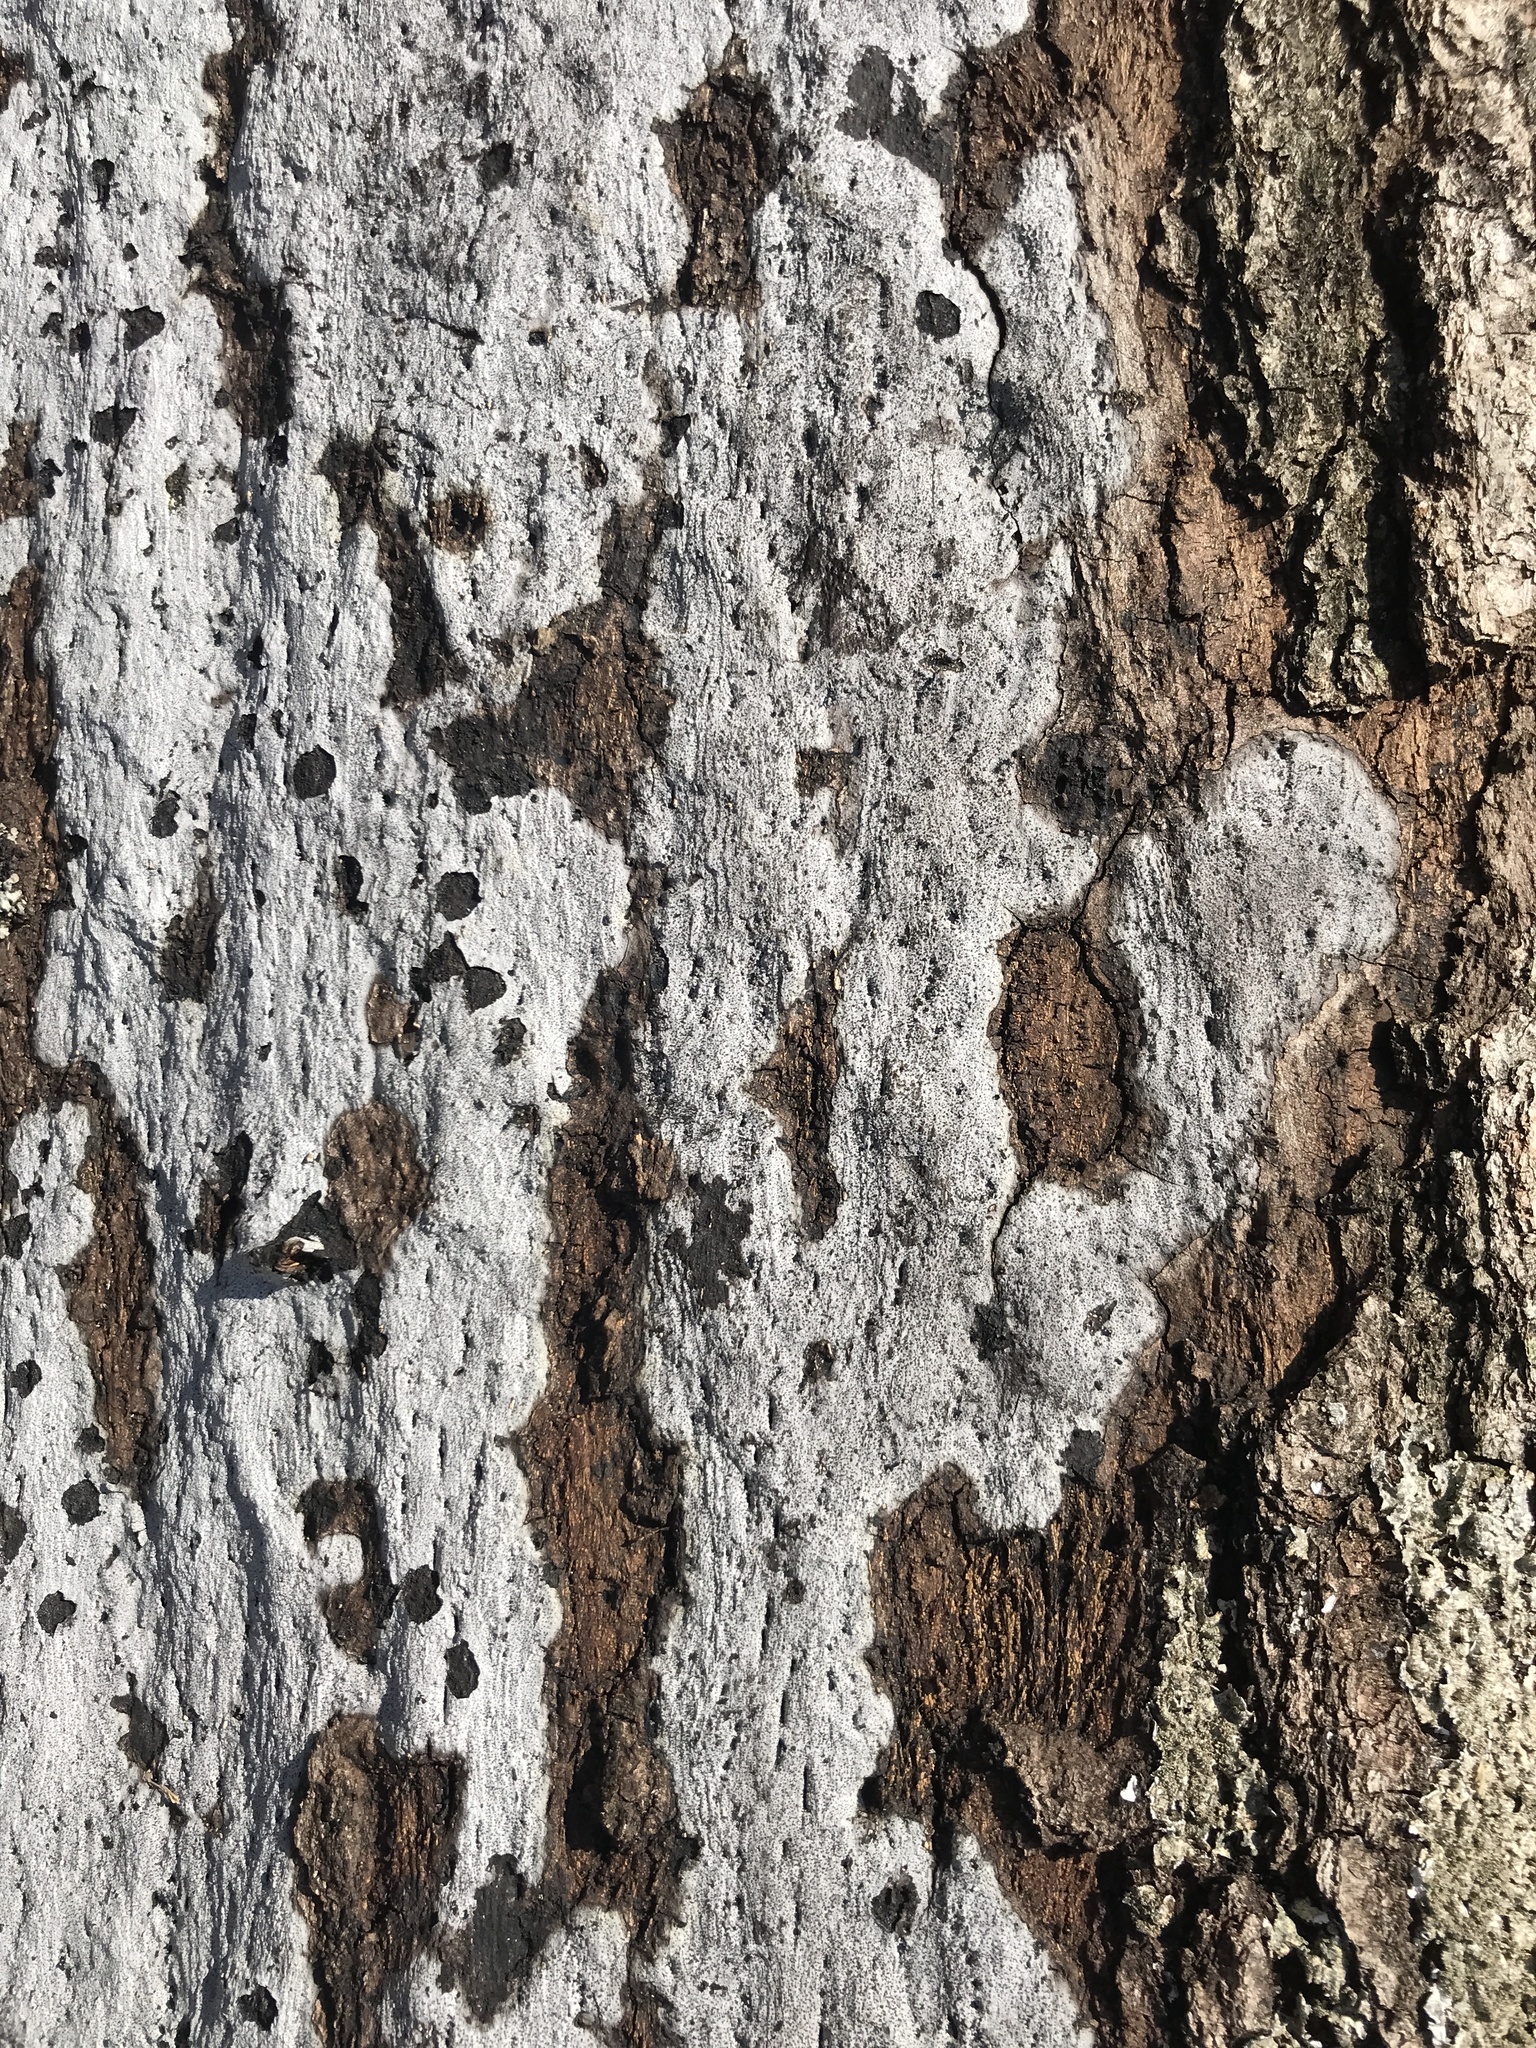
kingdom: Fungi
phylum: Ascomycota
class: Sordariomycetes
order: Xylariales
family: Graphostromataceae
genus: Biscogniauxia
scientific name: Biscogniauxia atropunctata
